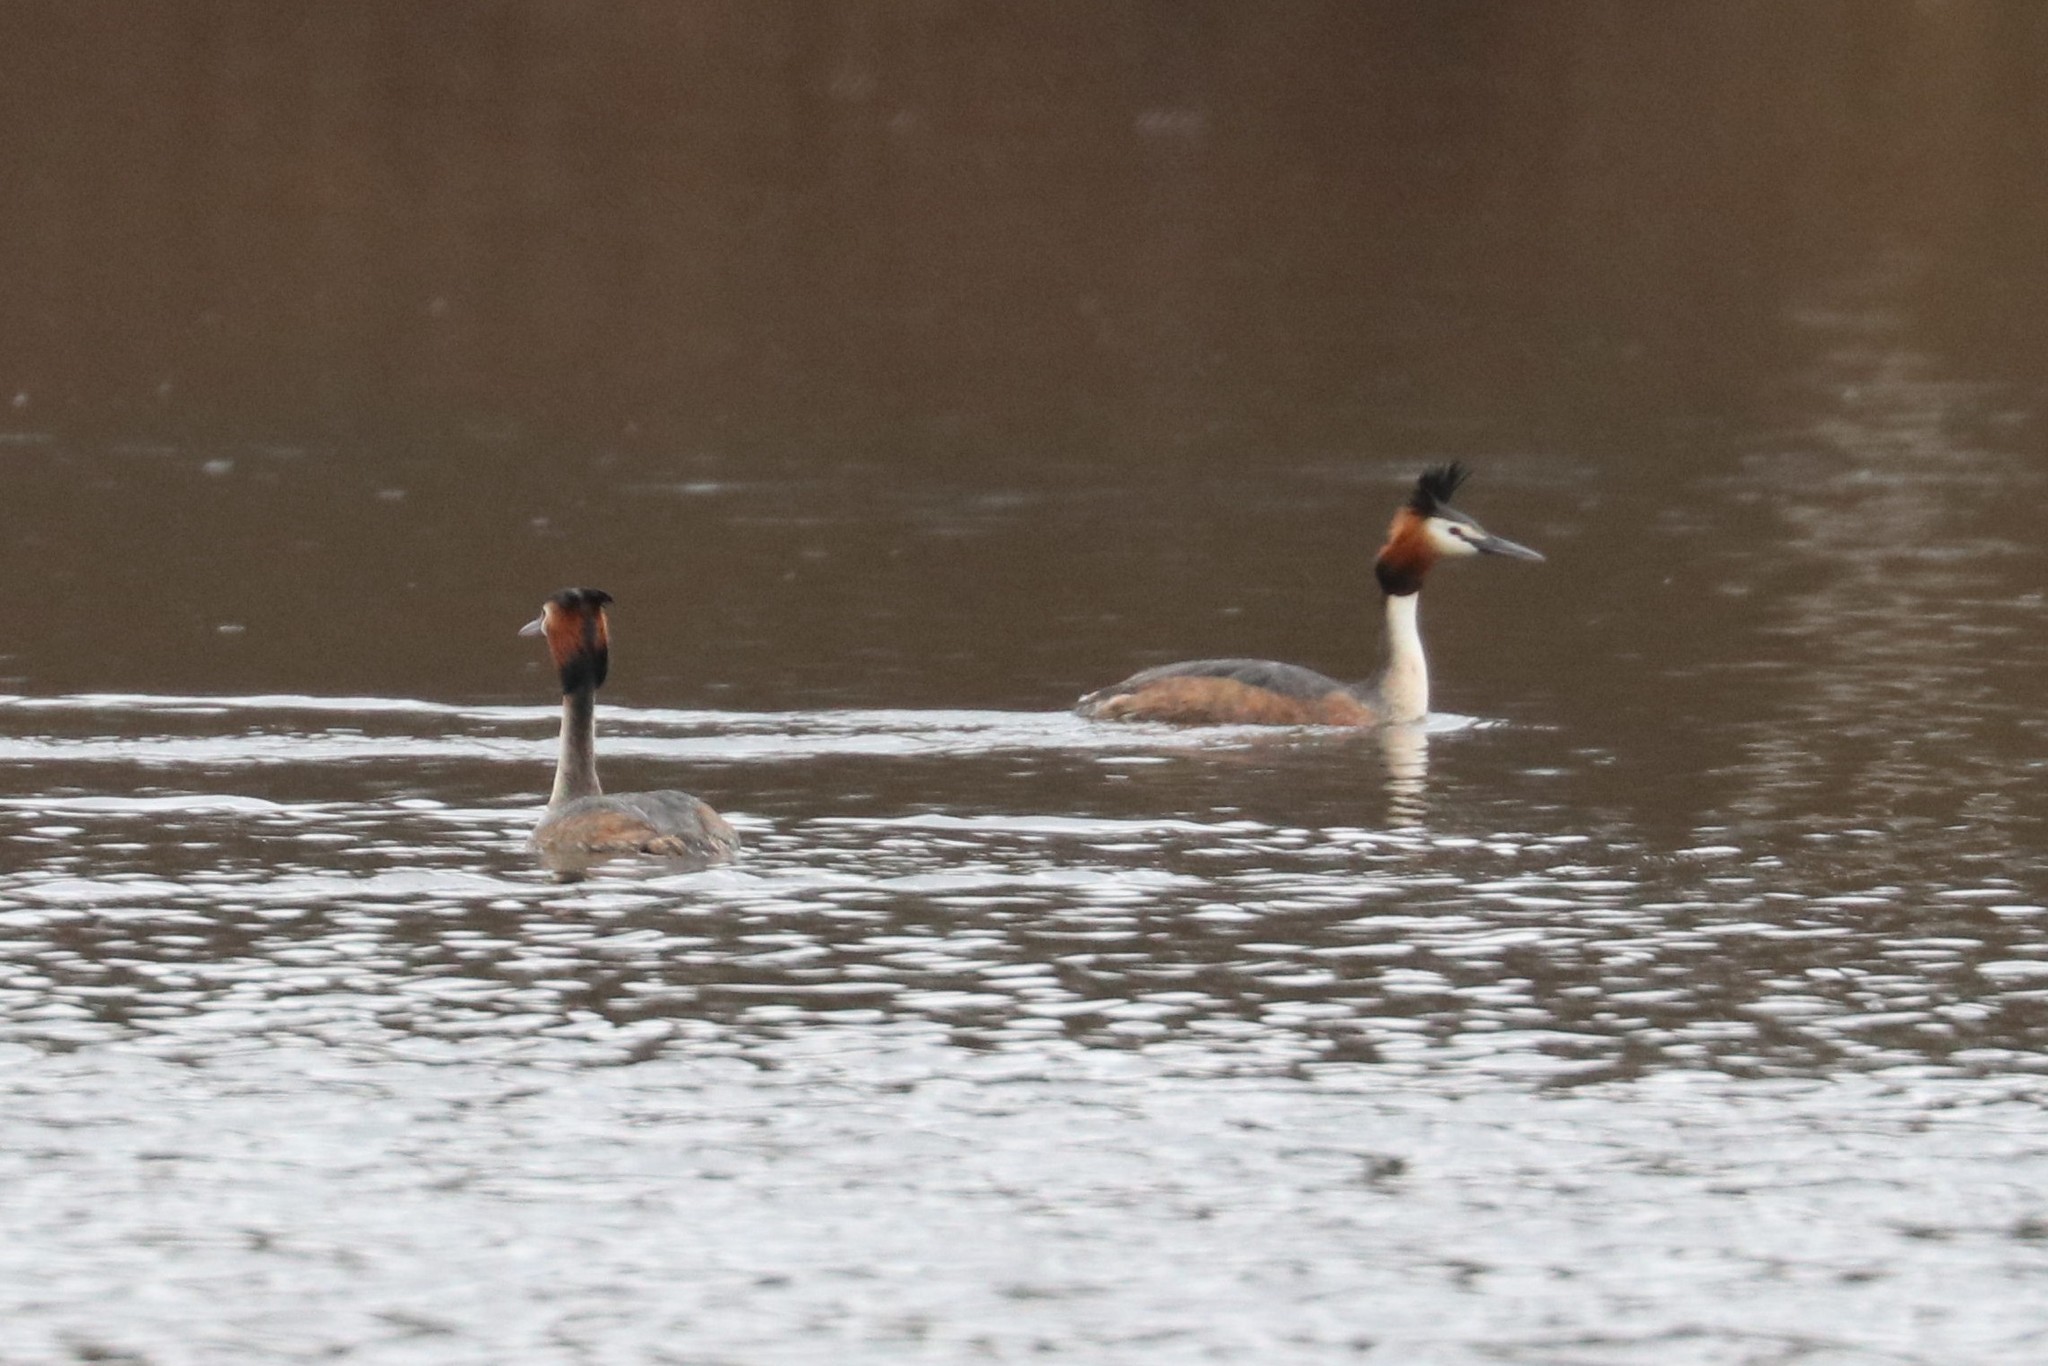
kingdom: Animalia
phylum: Chordata
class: Aves
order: Podicipediformes
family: Podicipedidae
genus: Podiceps
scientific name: Podiceps cristatus
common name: Great crested grebe
